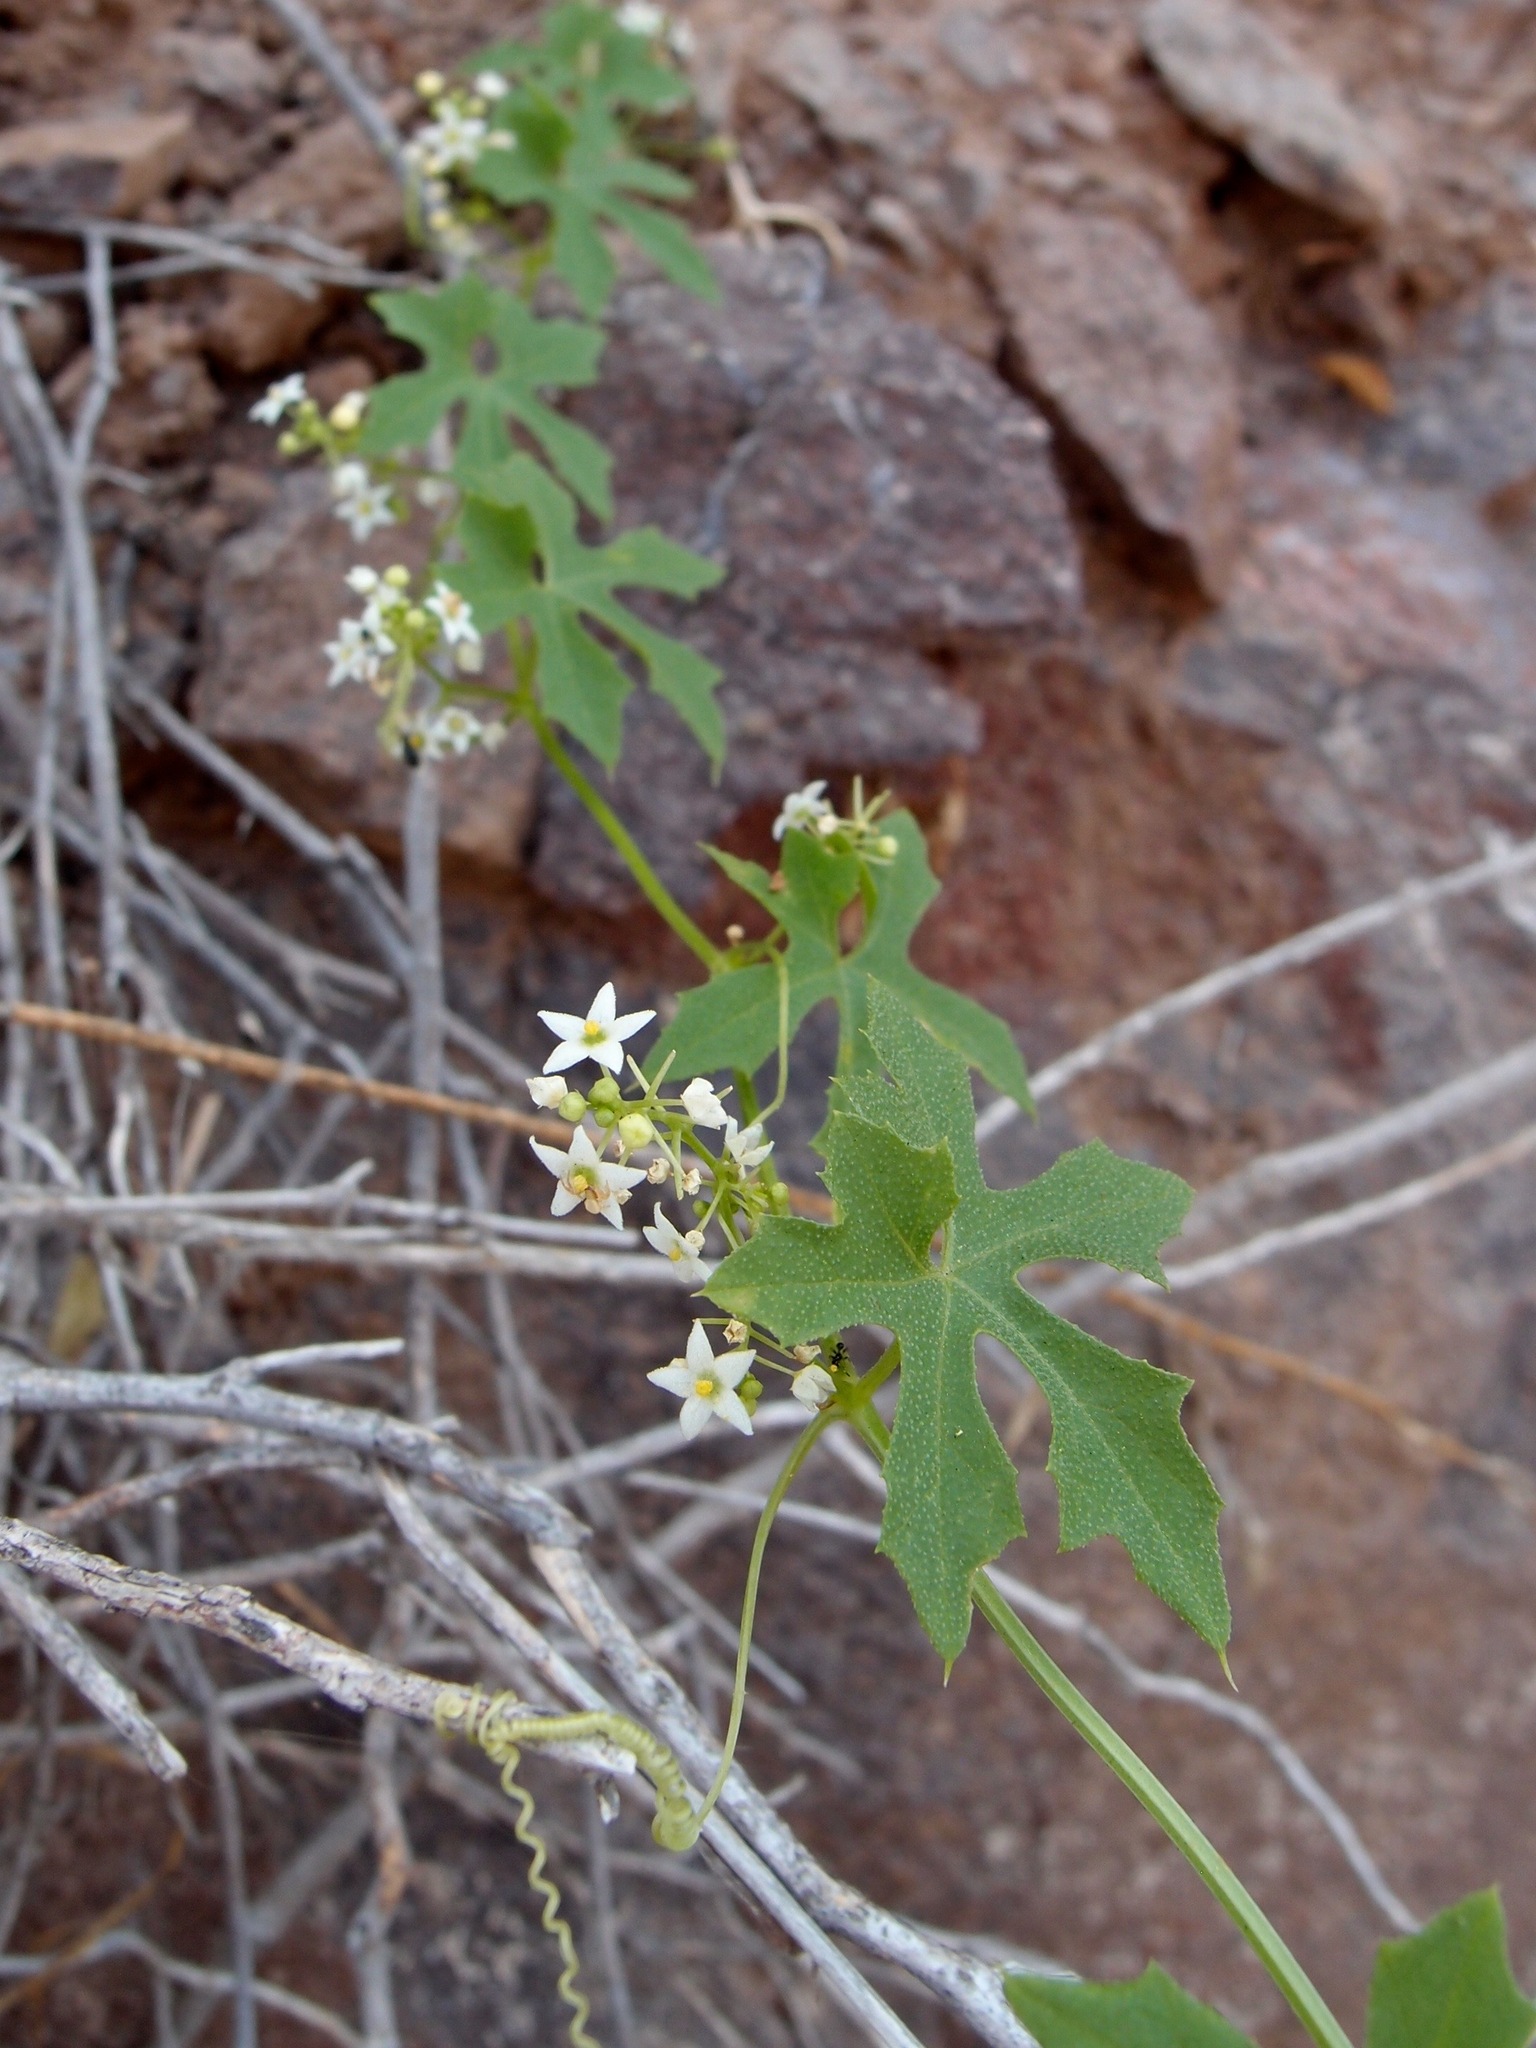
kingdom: Plantae
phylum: Tracheophyta
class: Magnoliopsida
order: Cucurbitales
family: Cucurbitaceae
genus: Echinopepon
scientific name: Echinopepon insularis
